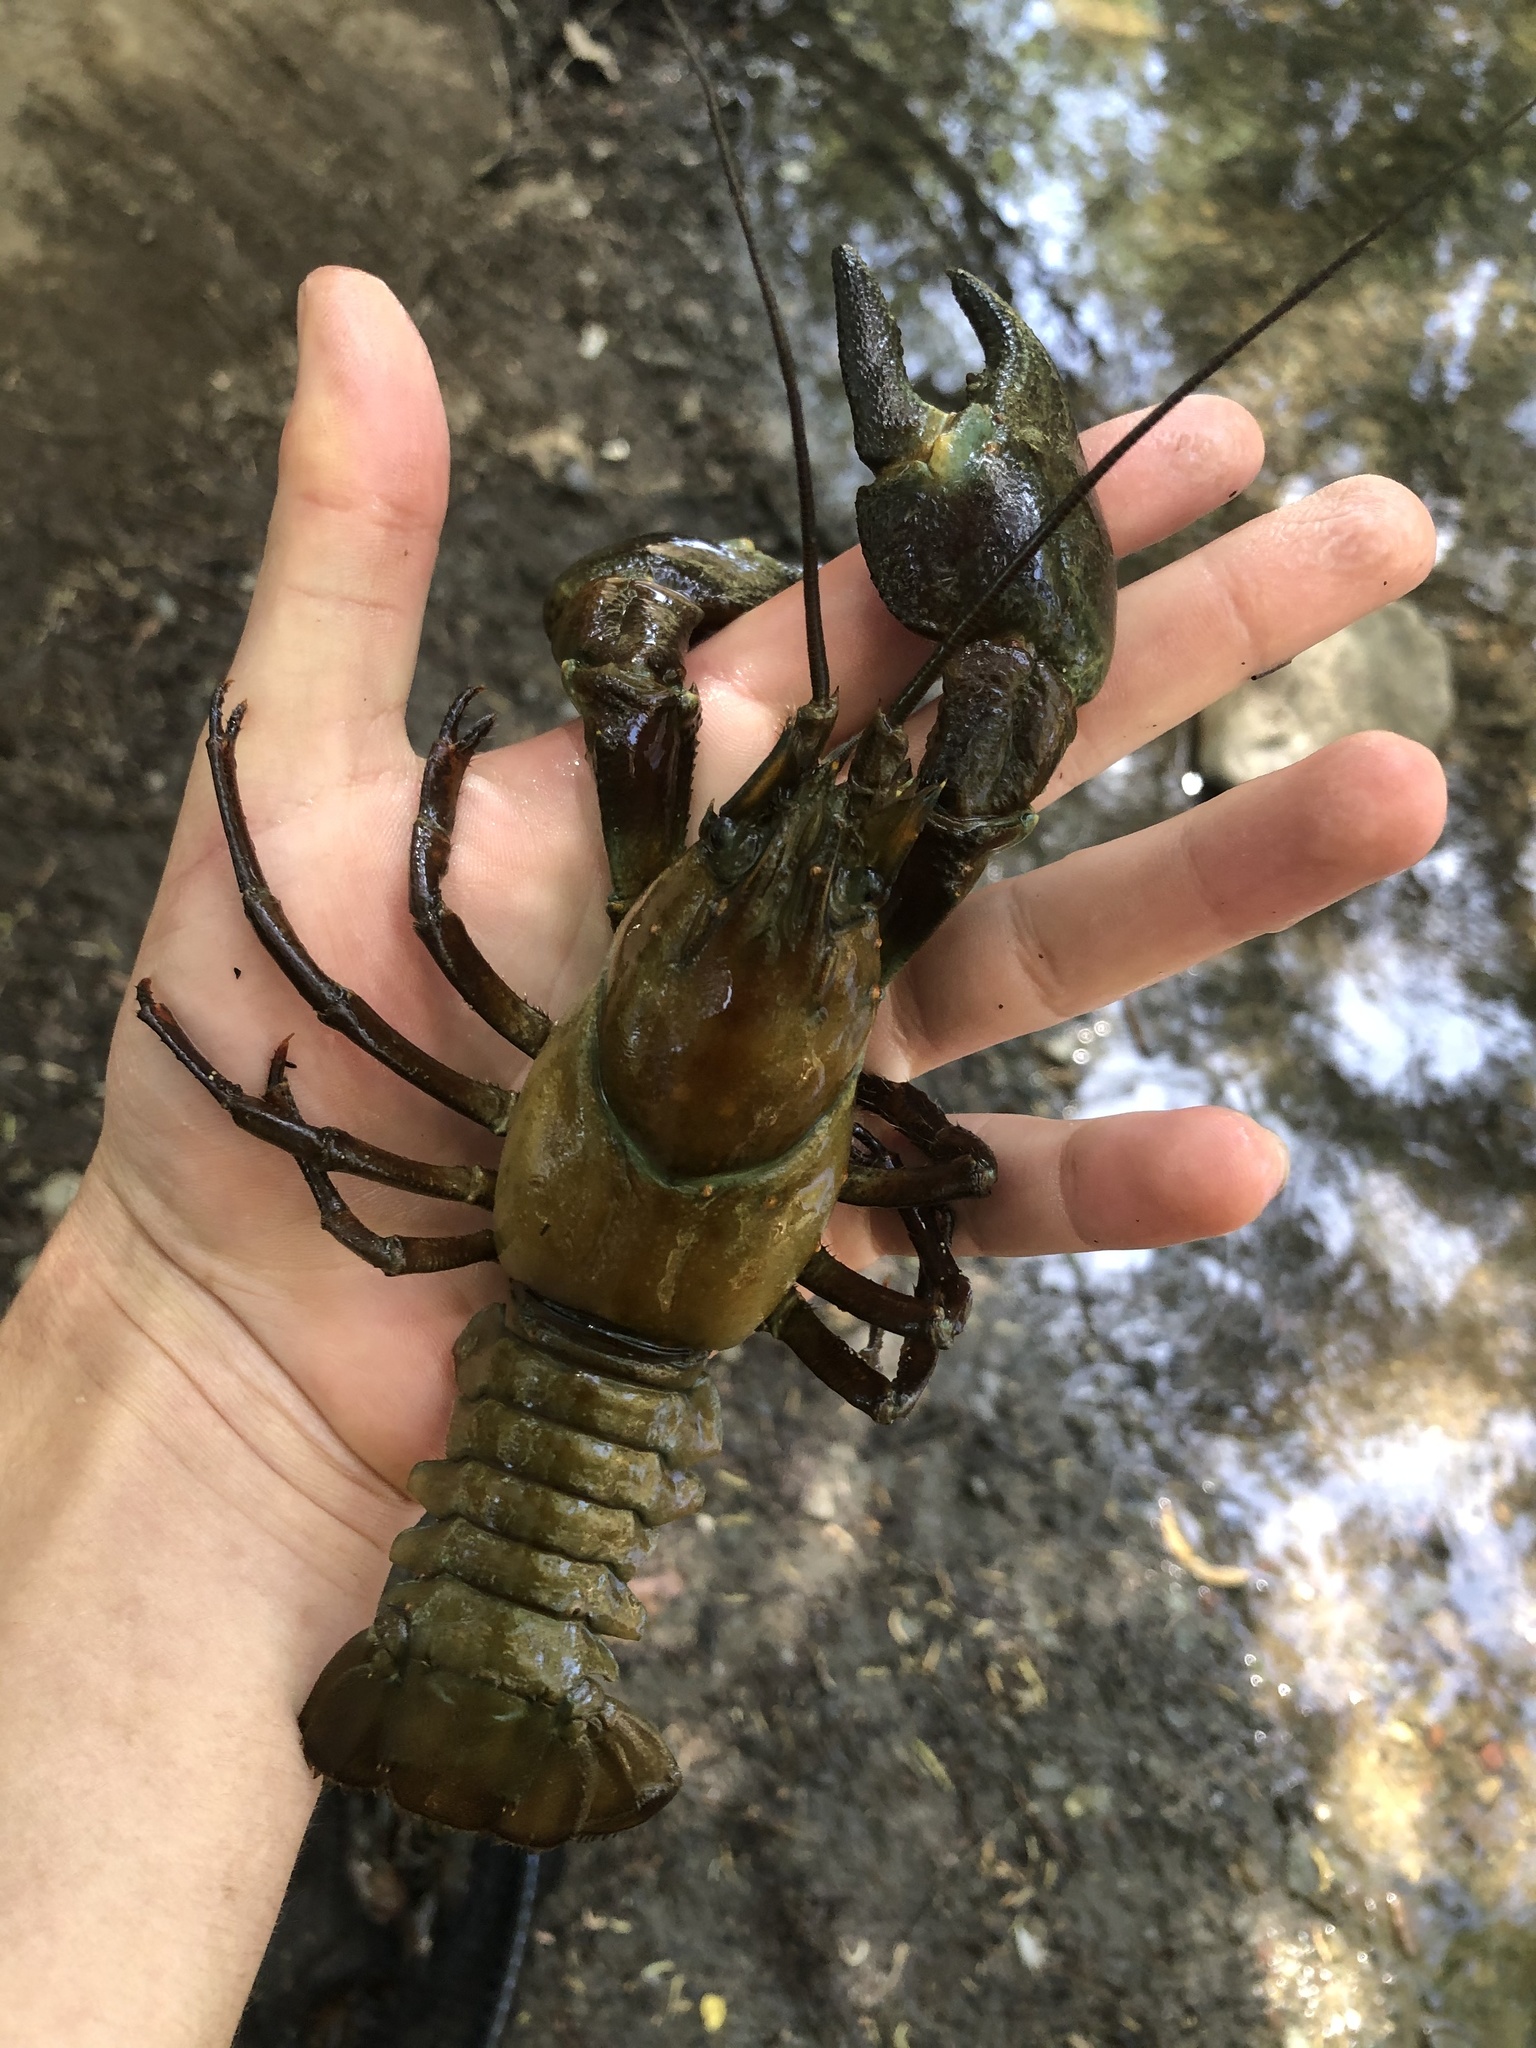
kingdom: Animalia
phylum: Arthropoda
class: Malacostraca
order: Decapoda
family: Astacidae
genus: Pacifastacus
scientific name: Pacifastacus leniusculus
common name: Signal crayfish
